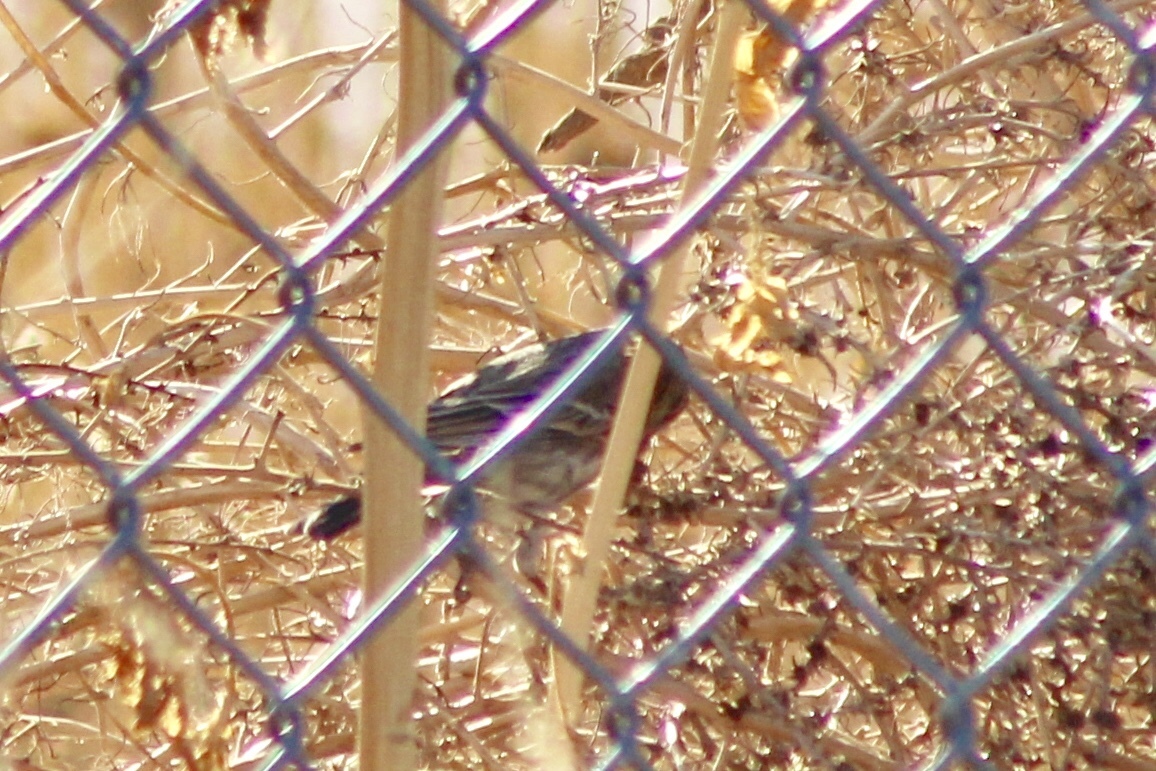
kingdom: Animalia
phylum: Chordata
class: Aves
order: Passeriformes
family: Fringillidae
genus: Haemorhous
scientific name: Haemorhous mexicanus
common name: House finch
